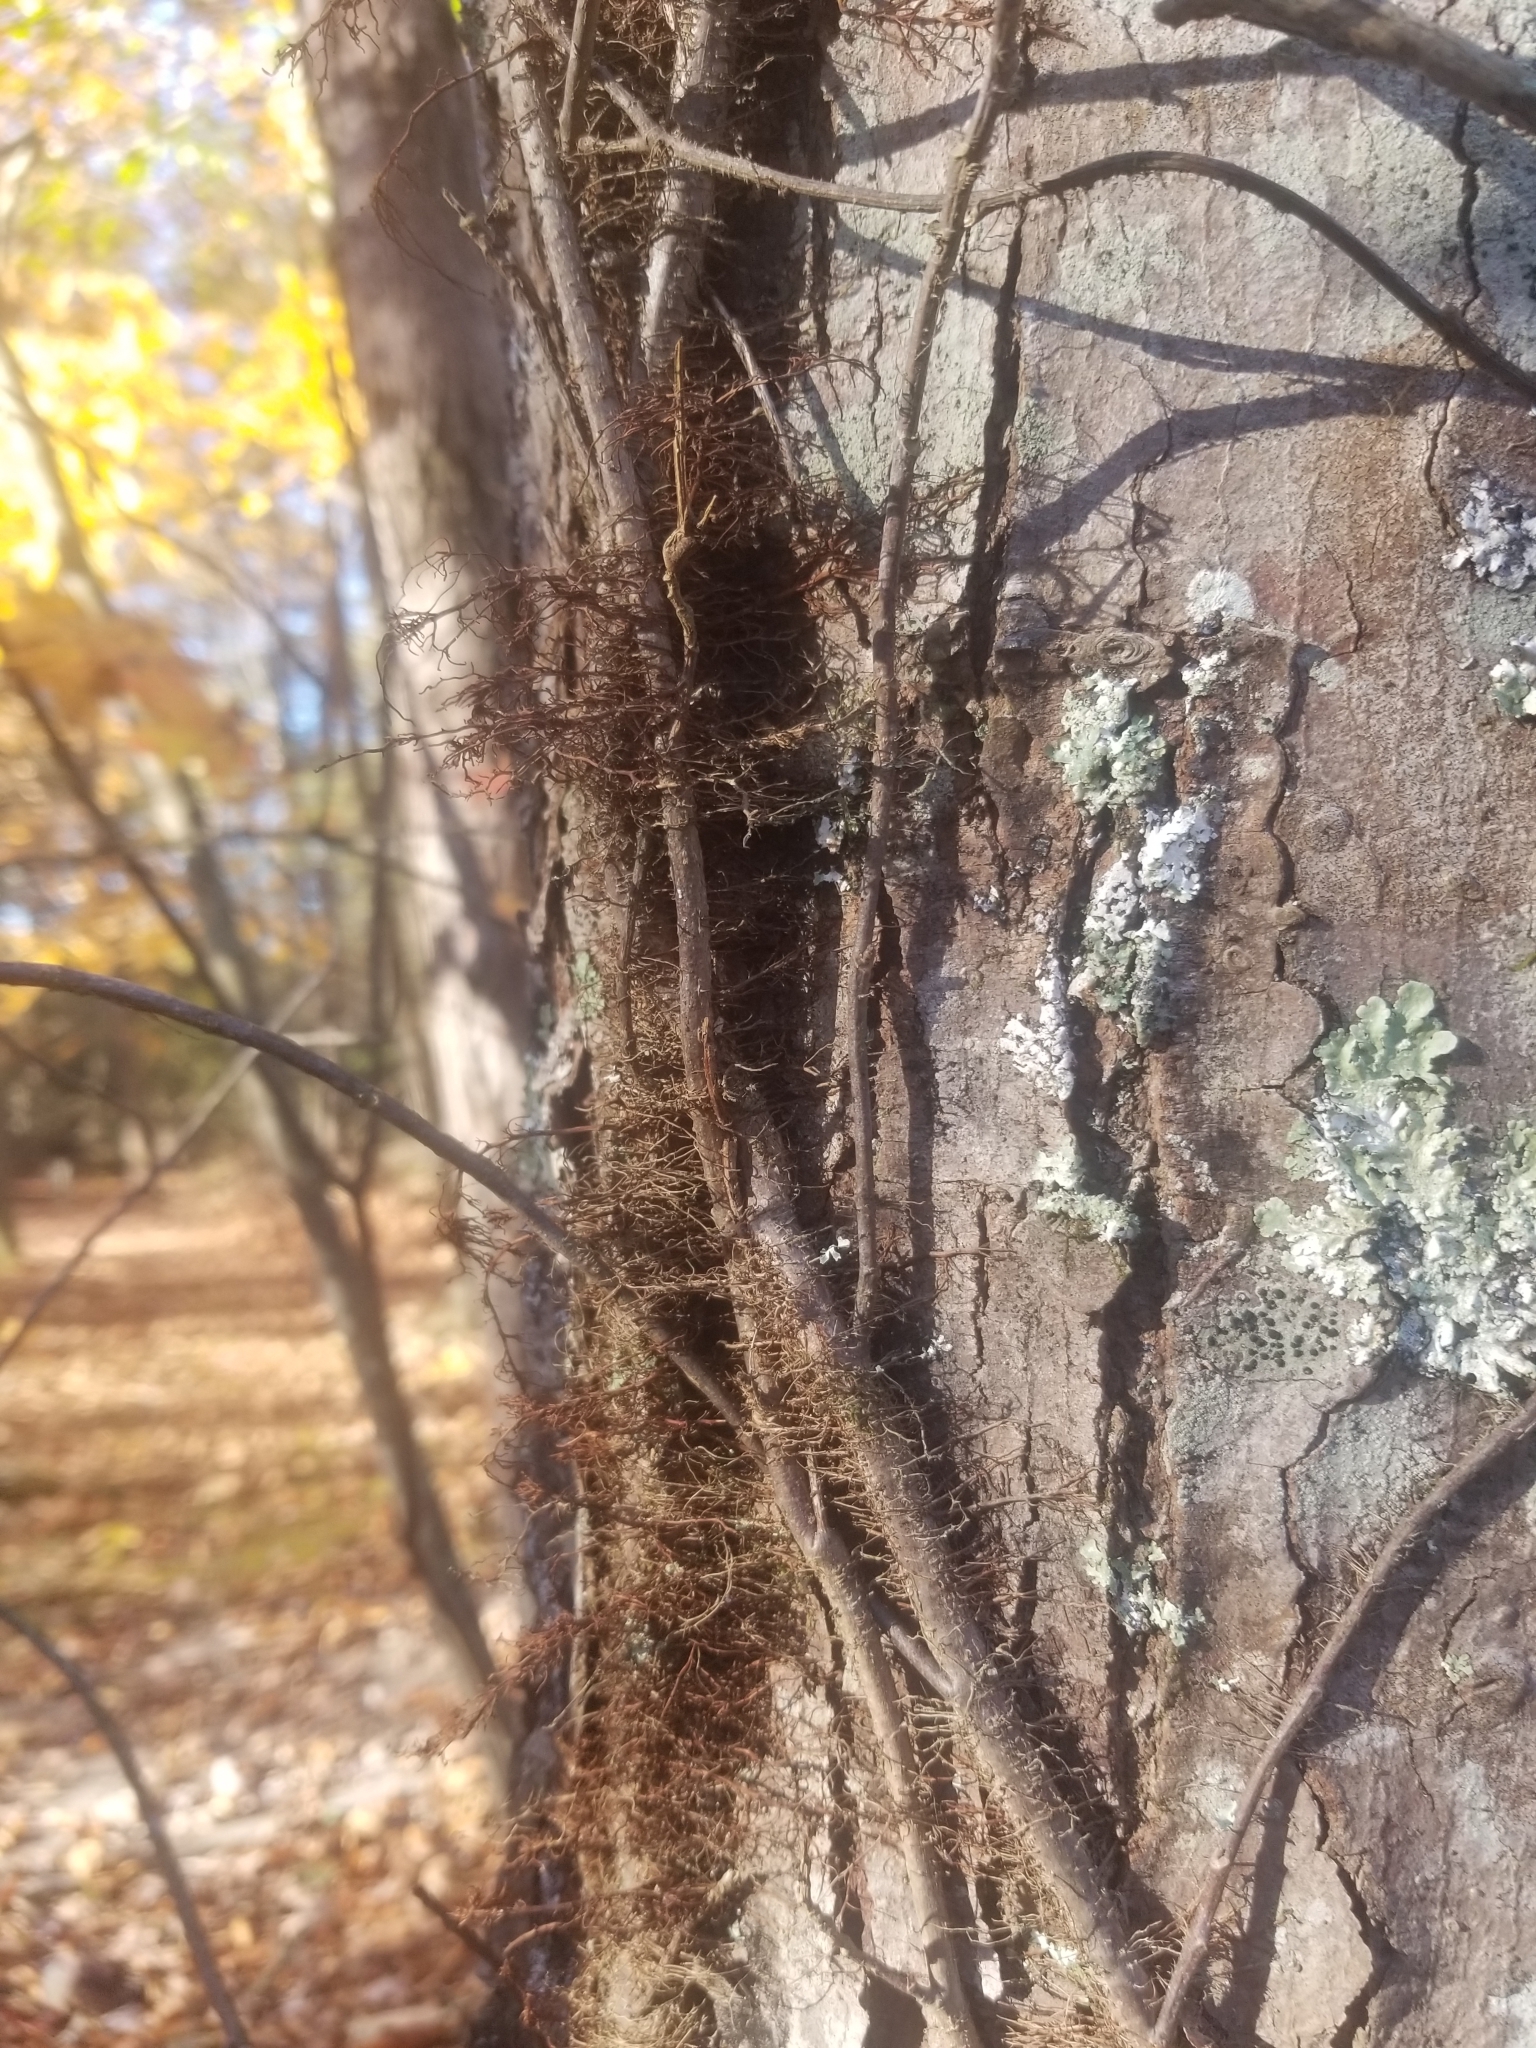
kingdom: Plantae
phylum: Tracheophyta
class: Magnoliopsida
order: Sapindales
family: Anacardiaceae
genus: Toxicodendron
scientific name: Toxicodendron radicans
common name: Poison ivy
